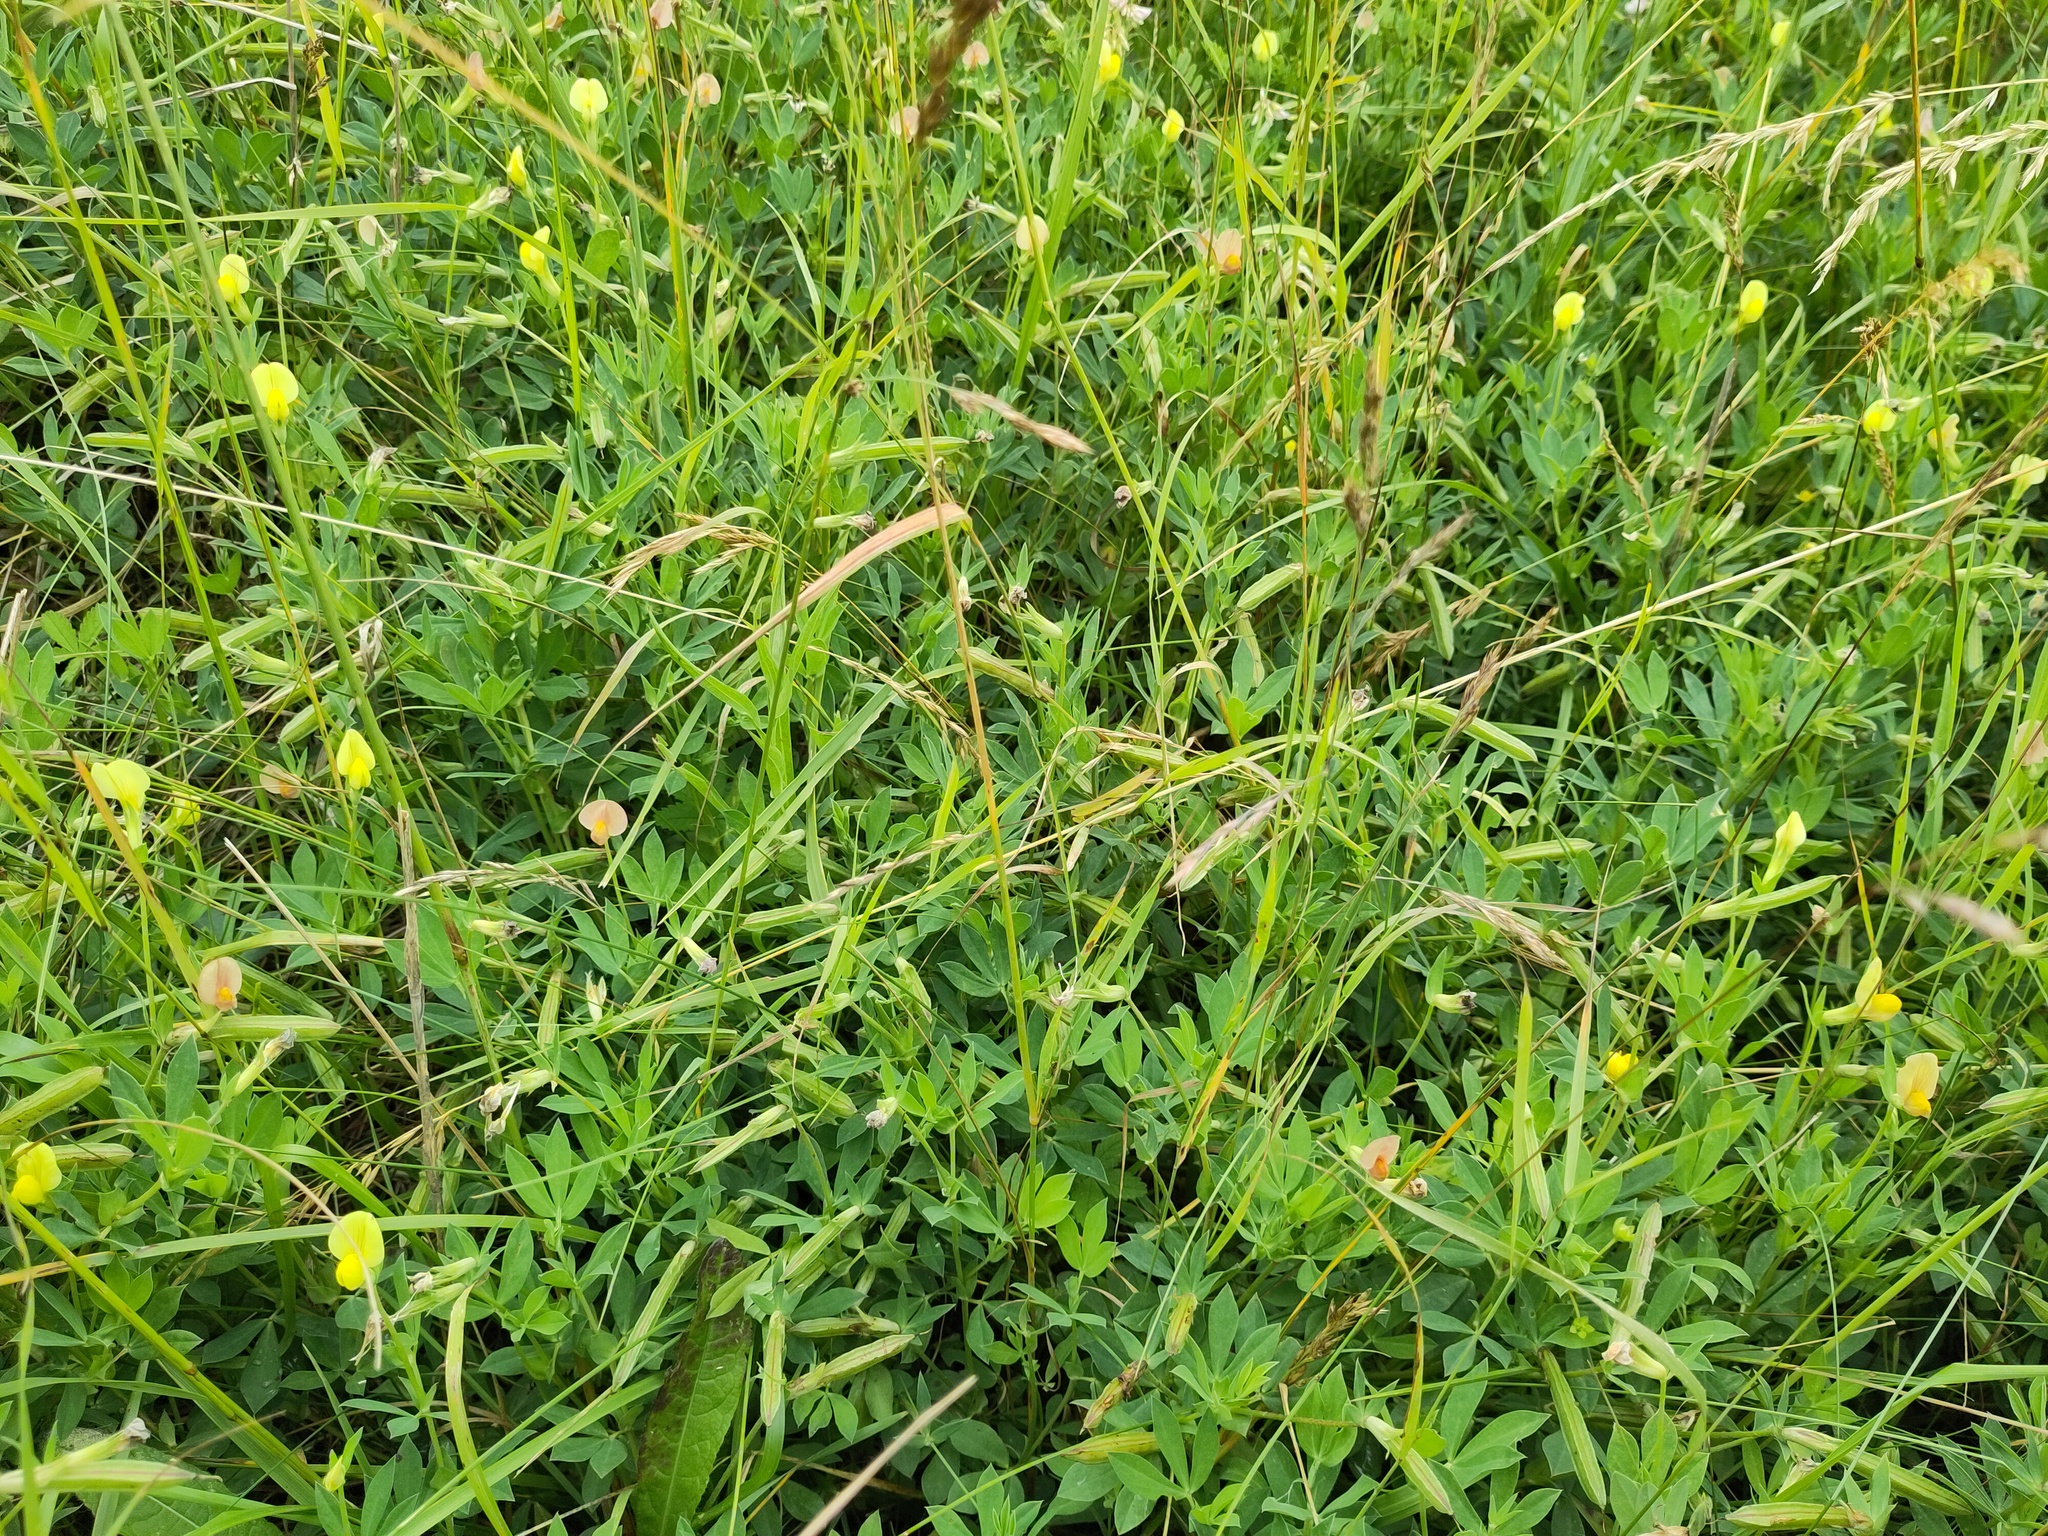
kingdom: Plantae
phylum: Tracheophyta
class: Magnoliopsida
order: Fabales
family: Fabaceae
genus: Lotus
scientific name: Lotus maritimus
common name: Dragon's-teeth
